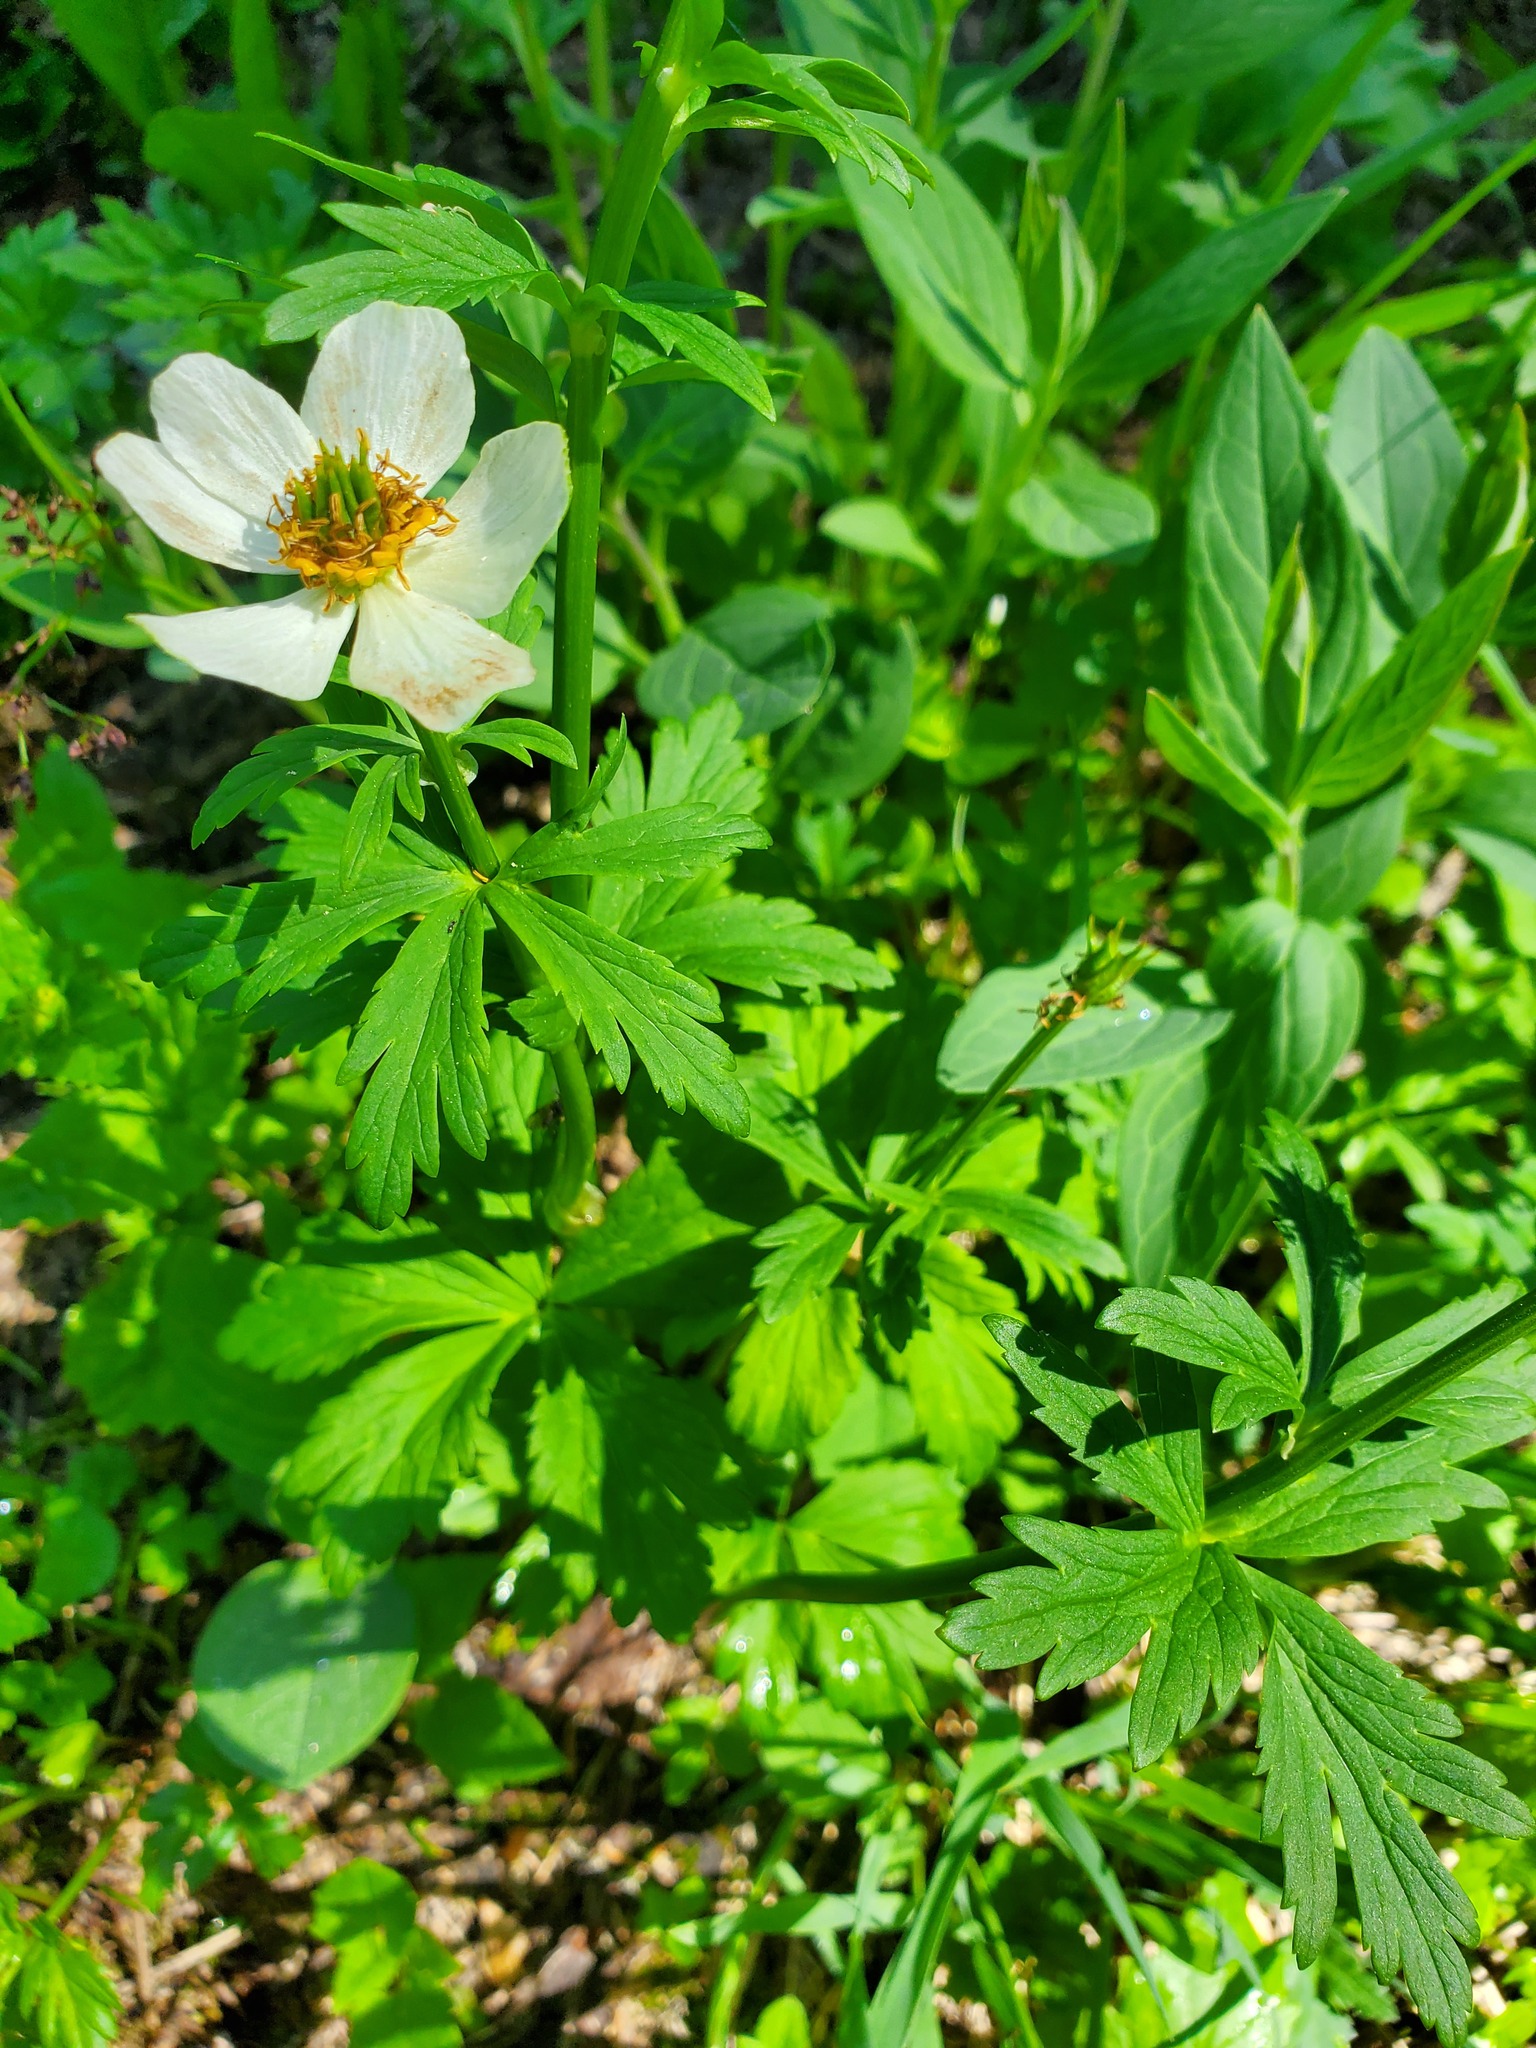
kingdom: Plantae
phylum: Tracheophyta
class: Magnoliopsida
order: Ranunculales
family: Ranunculaceae
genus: Trollius
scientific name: Trollius laxus
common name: American globeflower
